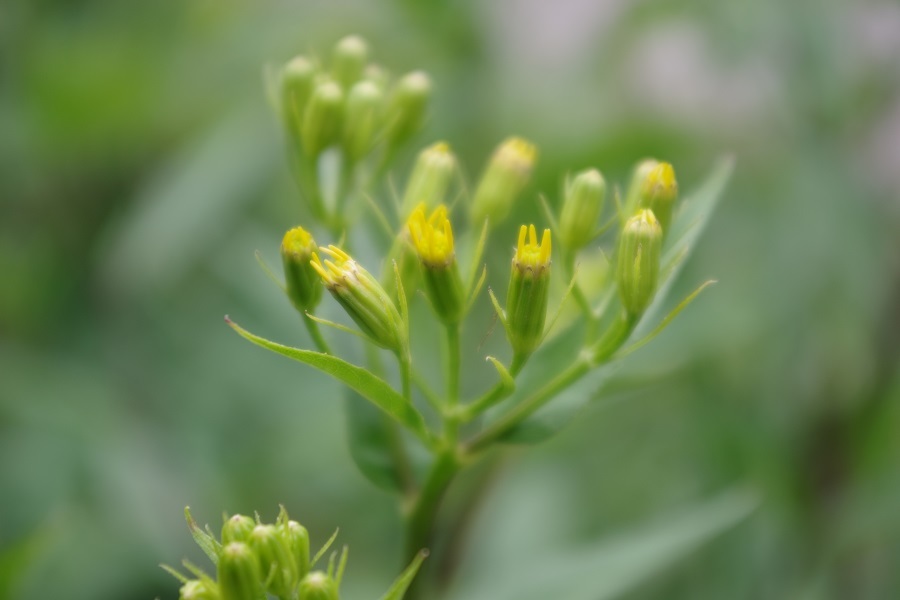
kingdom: Plantae
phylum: Tracheophyta
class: Magnoliopsida
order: Asterales
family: Asteraceae
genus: Senecio
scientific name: Senecio ovatus
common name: Wood ragwort
